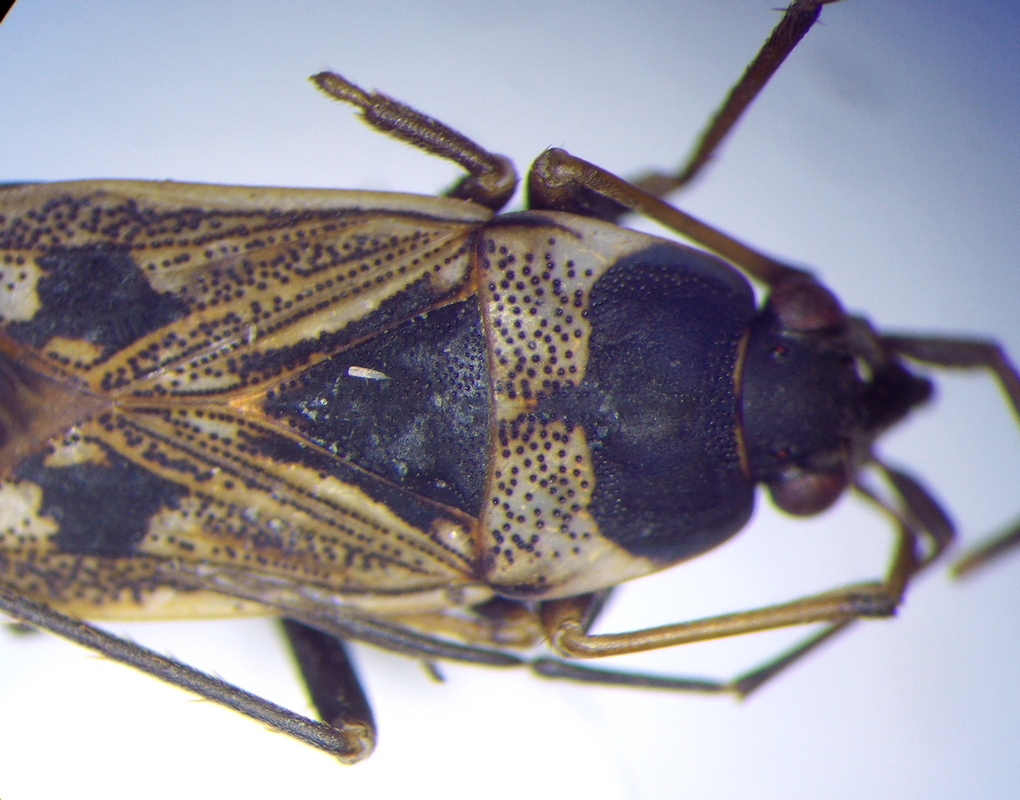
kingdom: Animalia
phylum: Arthropoda
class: Insecta
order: Hemiptera
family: Rhyparochromidae
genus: Rhyparochromus
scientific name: Rhyparochromus vulgaris
